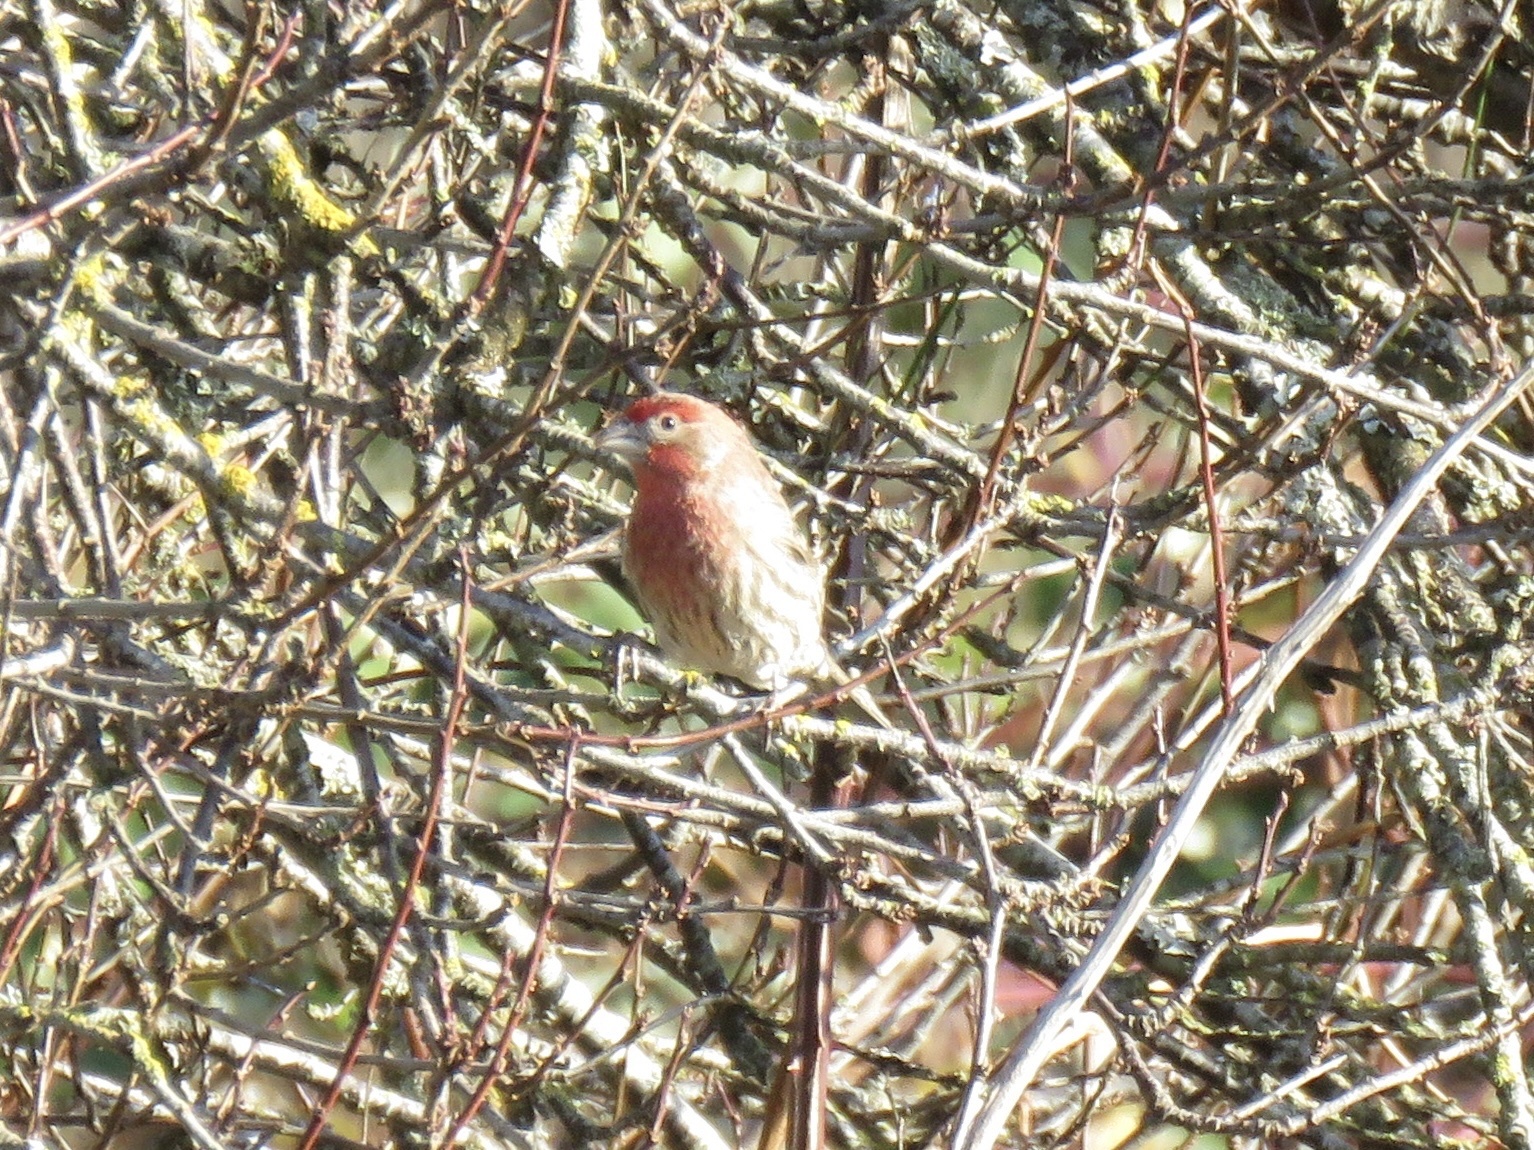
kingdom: Animalia
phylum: Chordata
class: Aves
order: Passeriformes
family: Fringillidae
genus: Haemorhous
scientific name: Haemorhous mexicanus
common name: House finch
